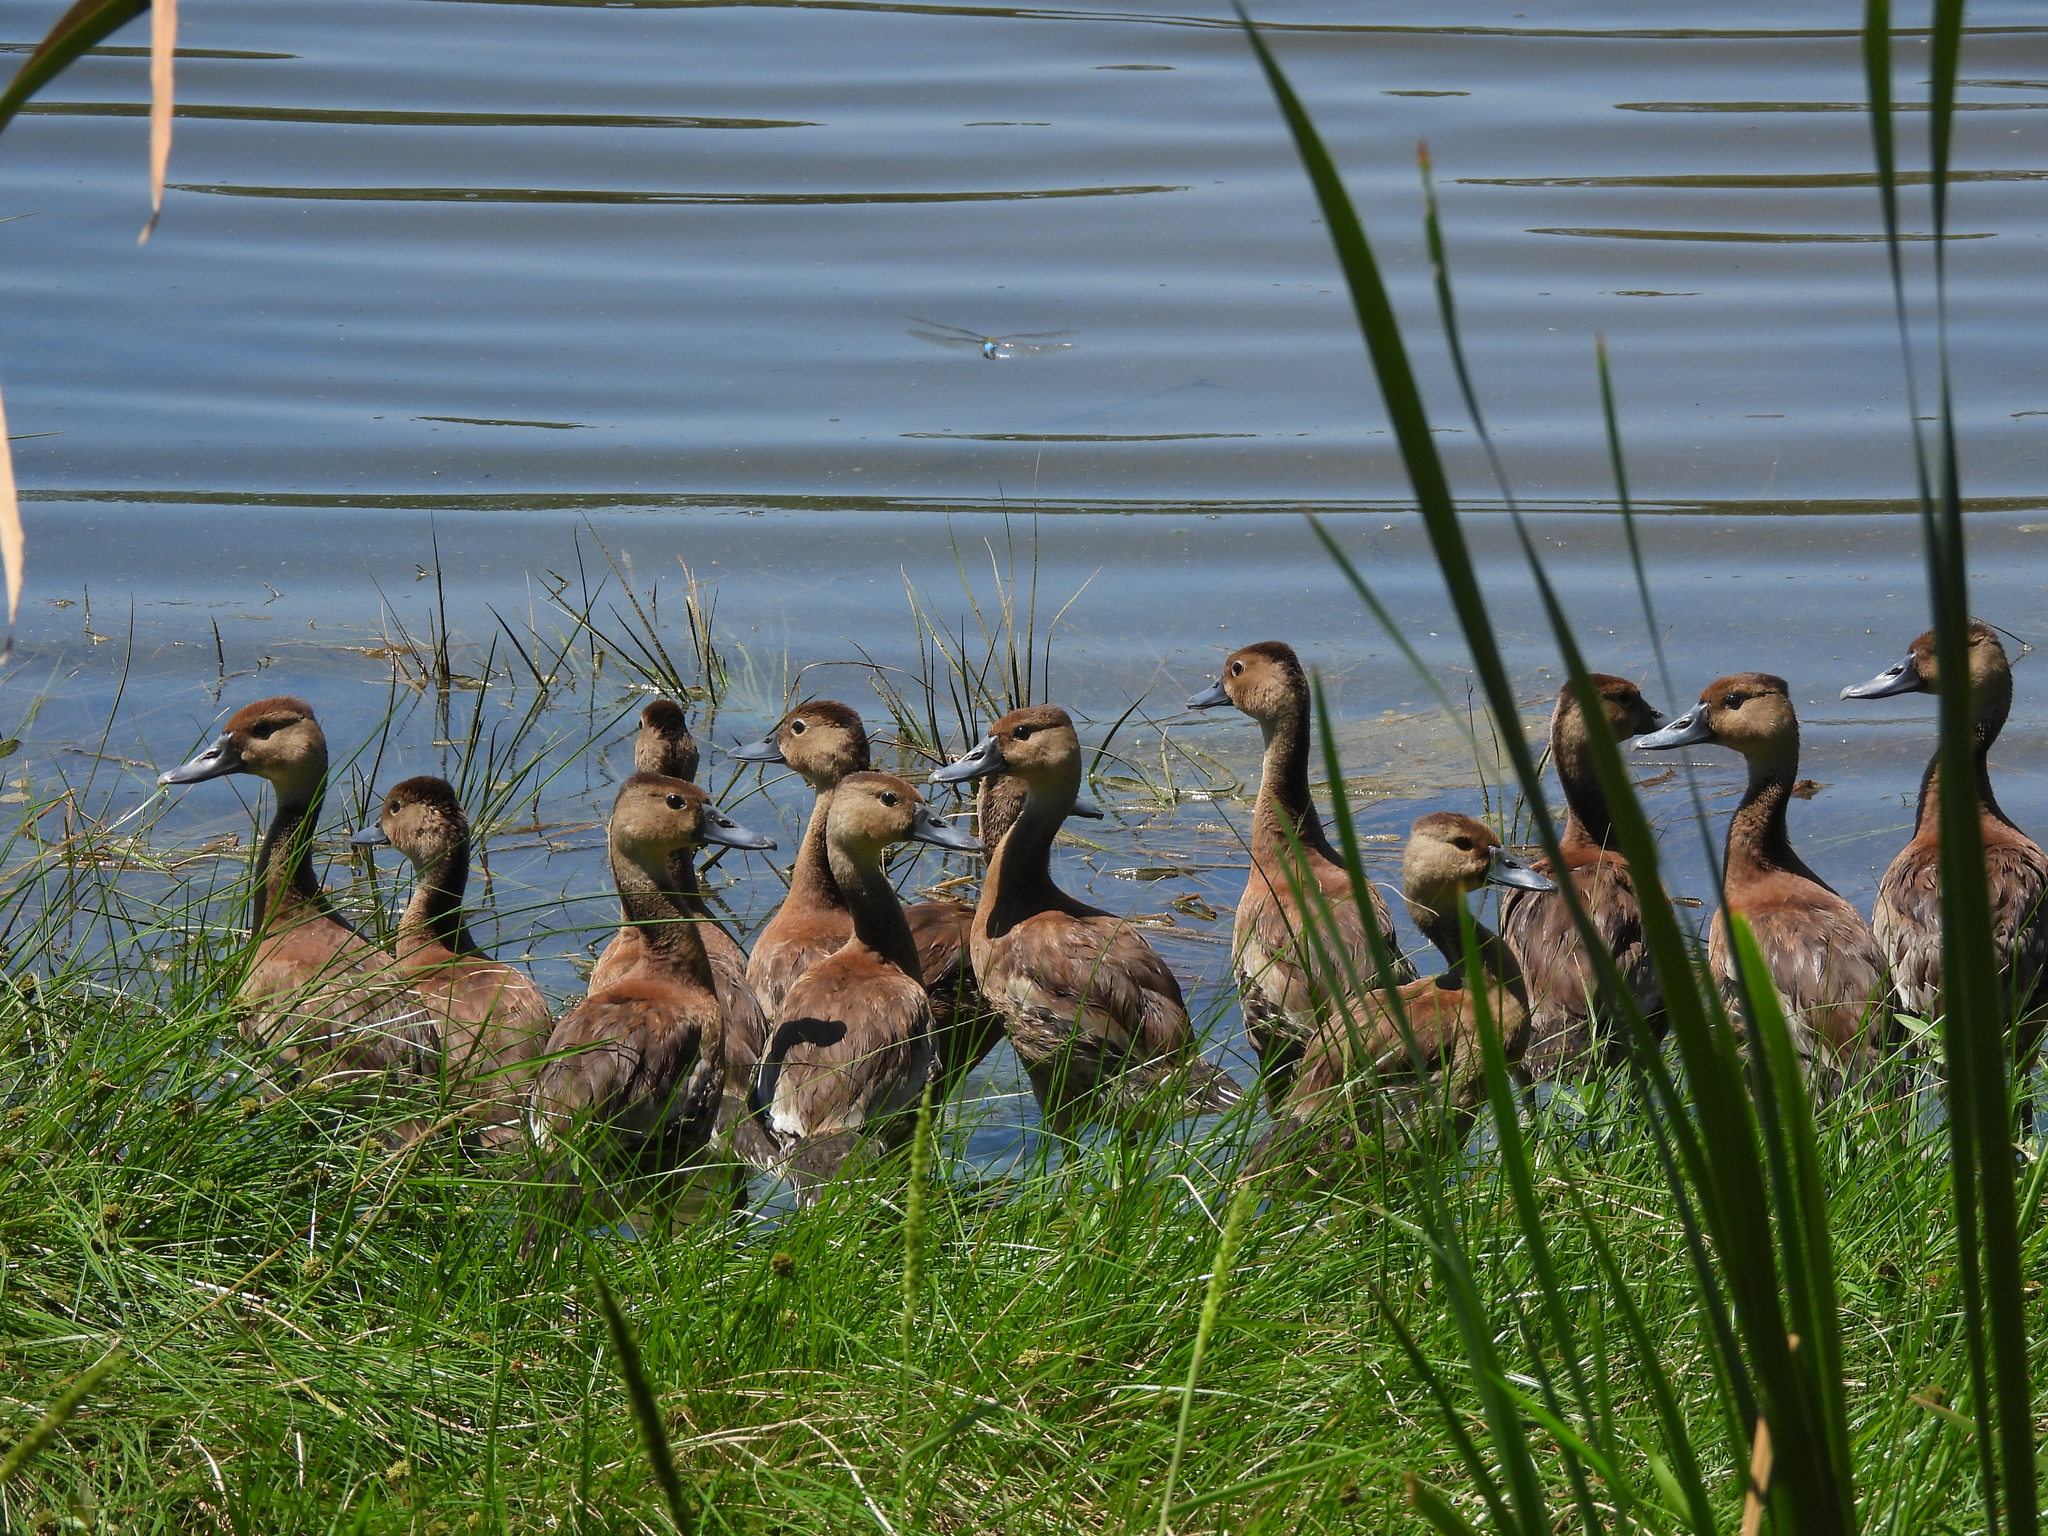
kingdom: Animalia
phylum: Chordata
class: Aves
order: Anseriformes
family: Anatidae
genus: Dendrocygna
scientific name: Dendrocygna autumnalis
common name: Black-bellied whistling duck
